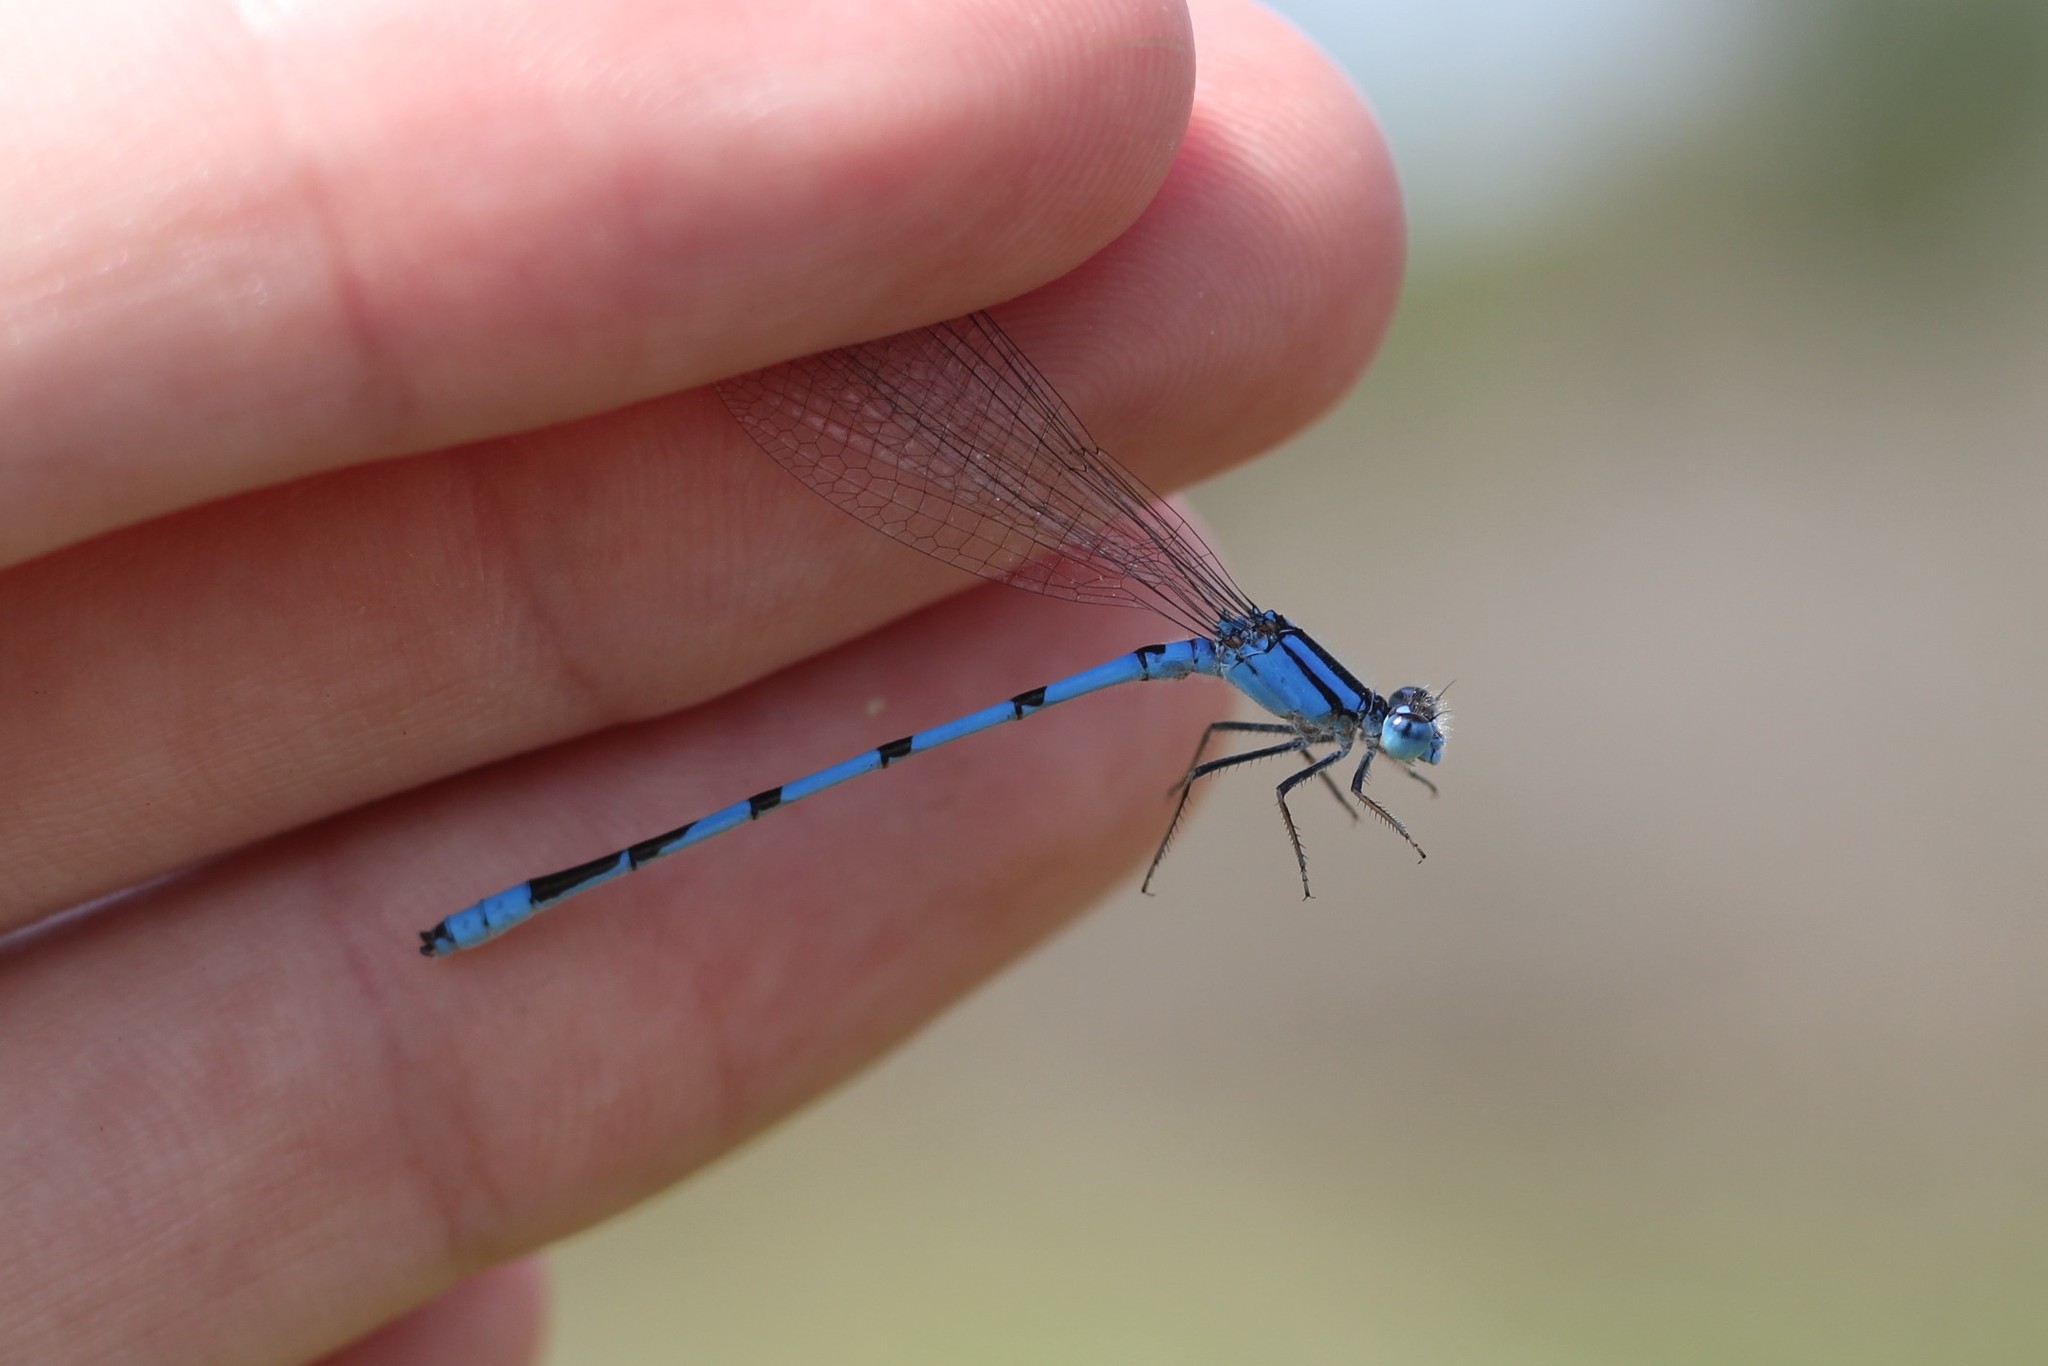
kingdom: Animalia
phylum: Arthropoda
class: Insecta
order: Odonata
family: Coenagrionidae
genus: Enallagma
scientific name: Enallagma civile
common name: Damselfly
